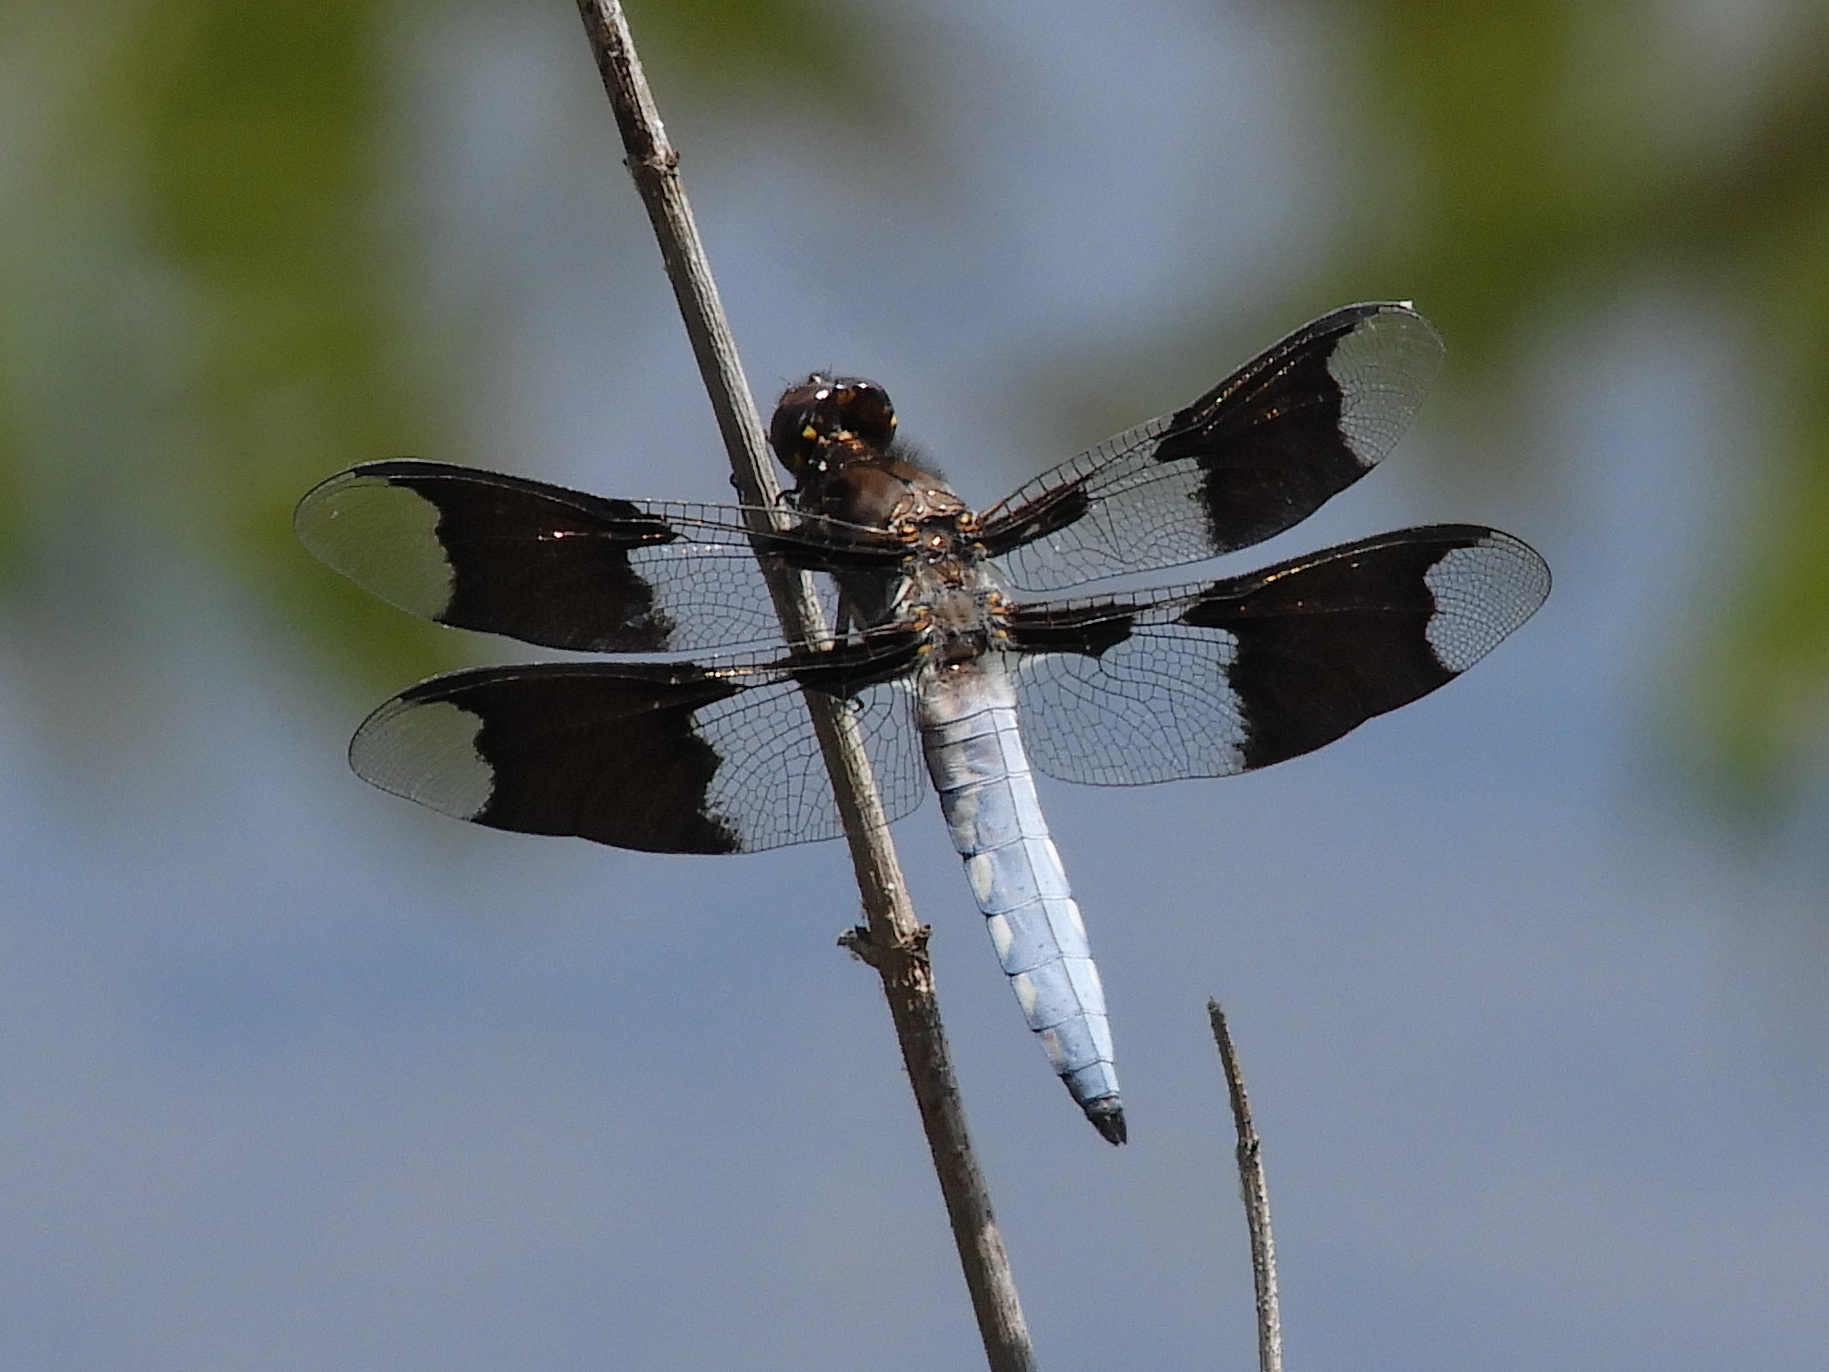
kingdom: Animalia
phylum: Arthropoda
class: Insecta
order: Odonata
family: Libellulidae
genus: Plathemis
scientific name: Plathemis lydia
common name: Common whitetail
